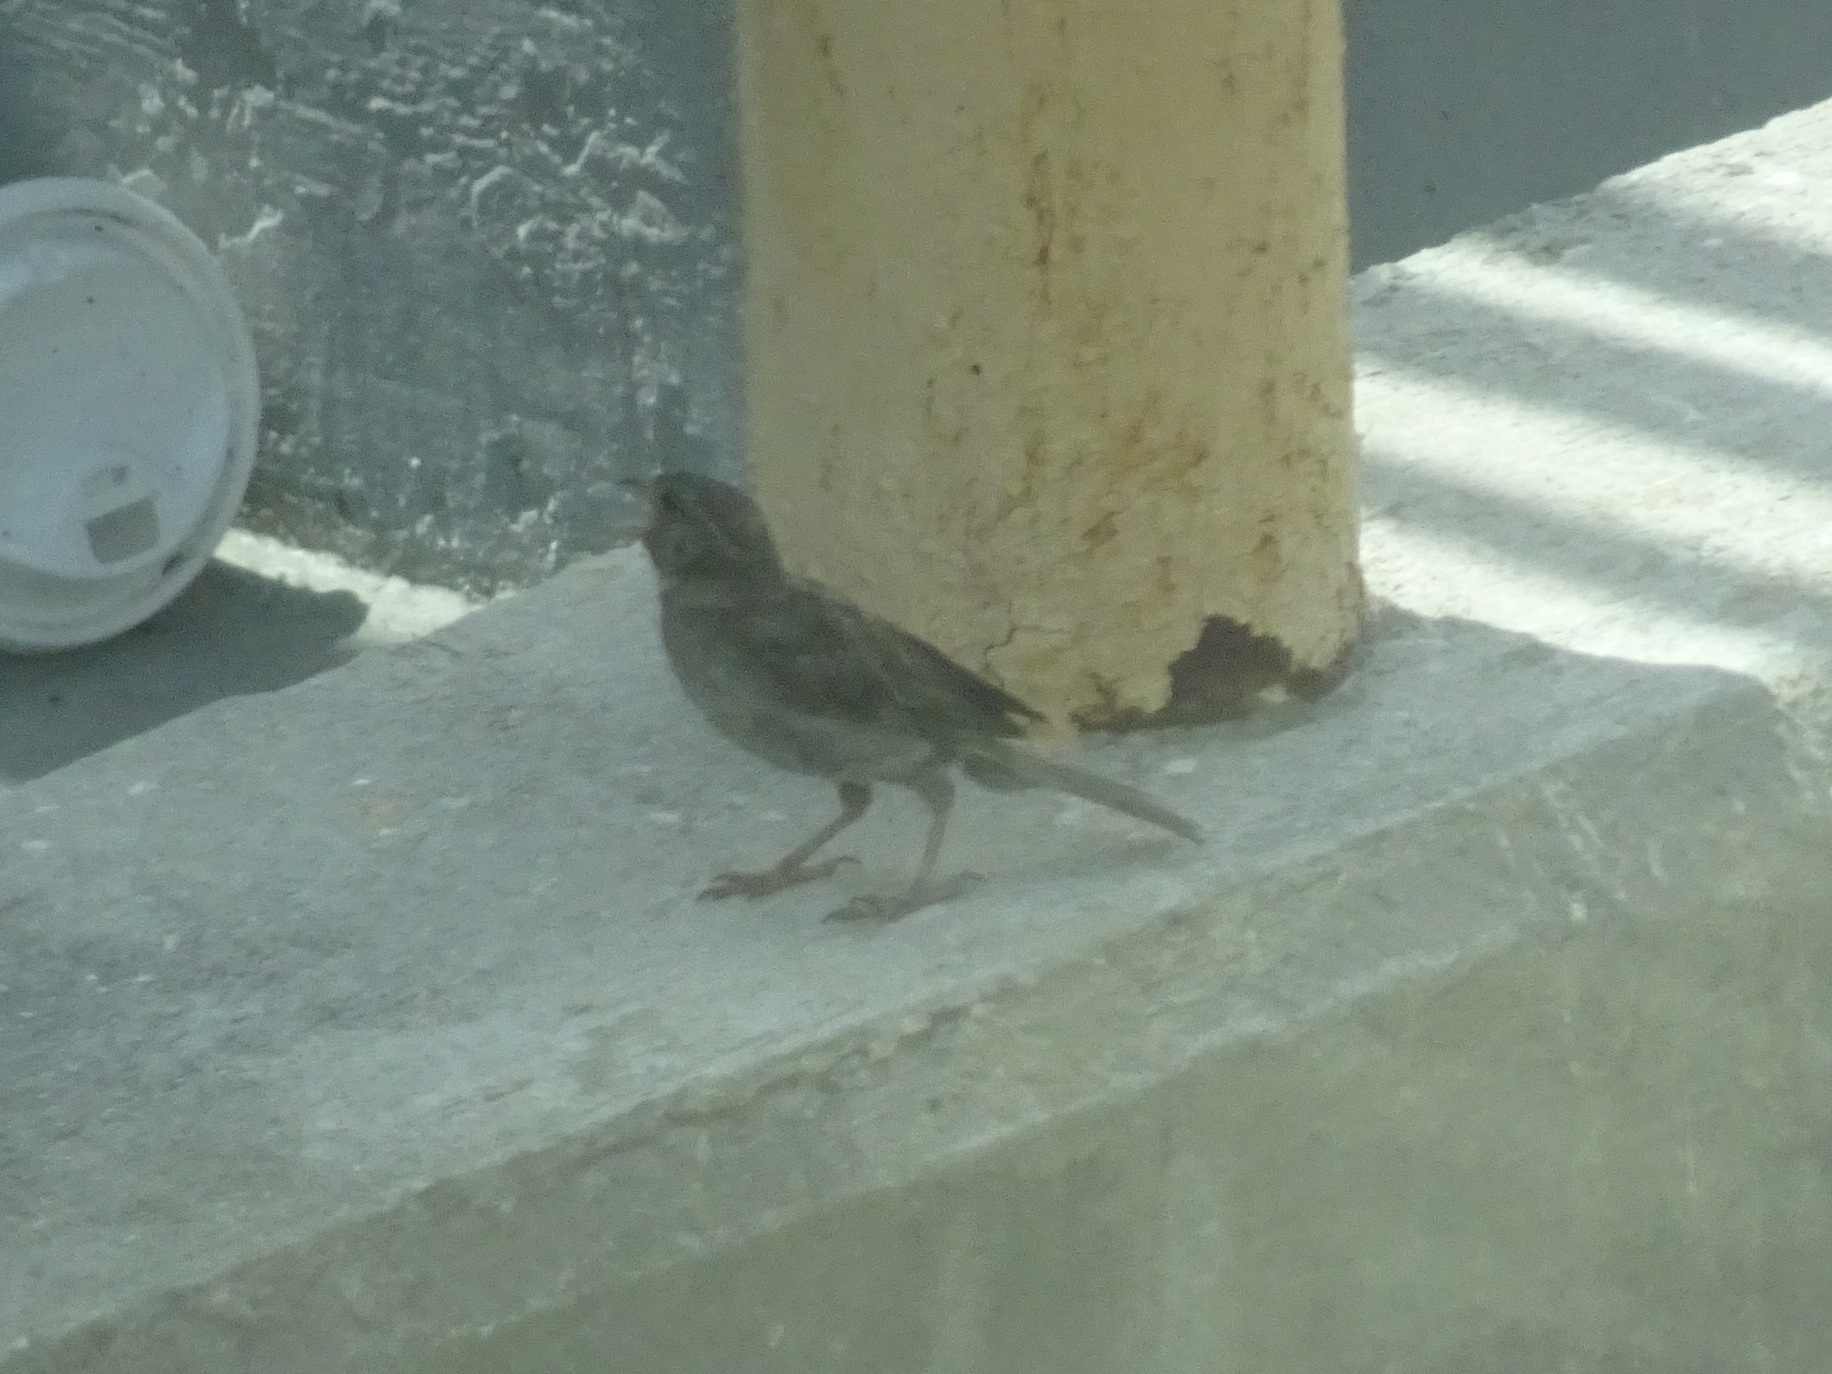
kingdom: Animalia
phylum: Chordata
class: Aves
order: Passeriformes
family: Passeridae
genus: Passer
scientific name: Passer domesticus
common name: House sparrow
